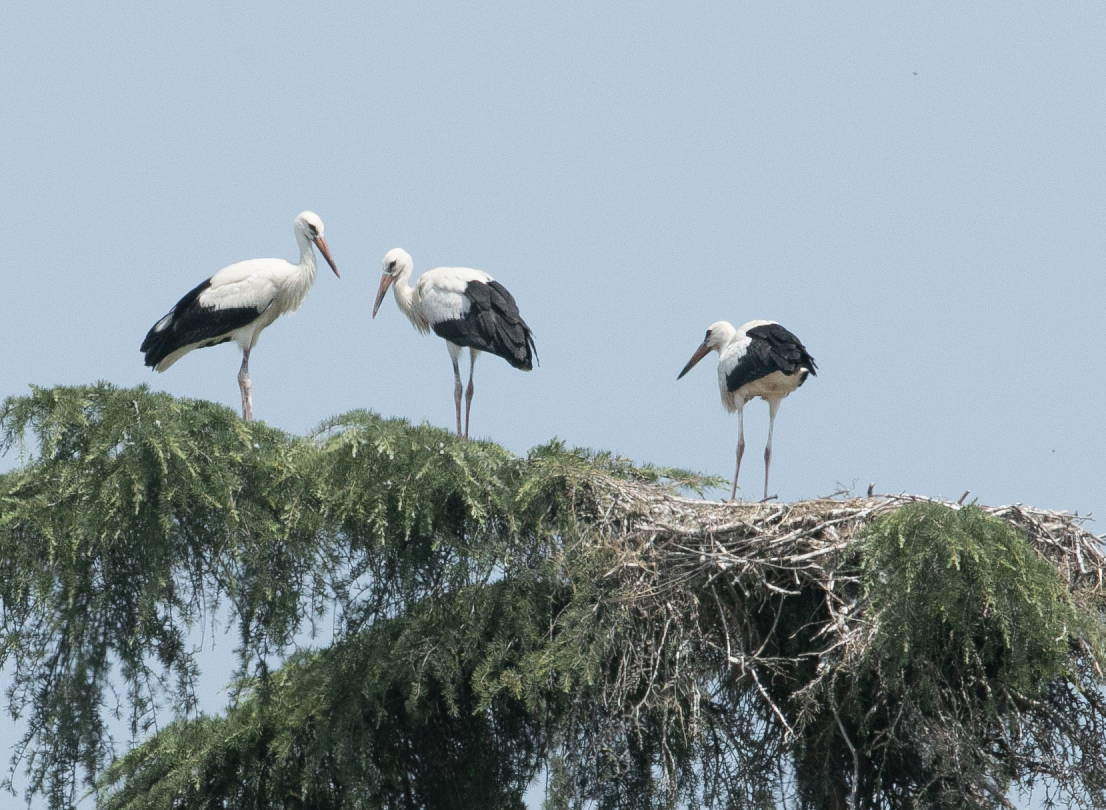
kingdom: Animalia
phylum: Chordata
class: Aves
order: Ciconiiformes
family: Ciconiidae
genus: Ciconia
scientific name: Ciconia ciconia
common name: White stork
